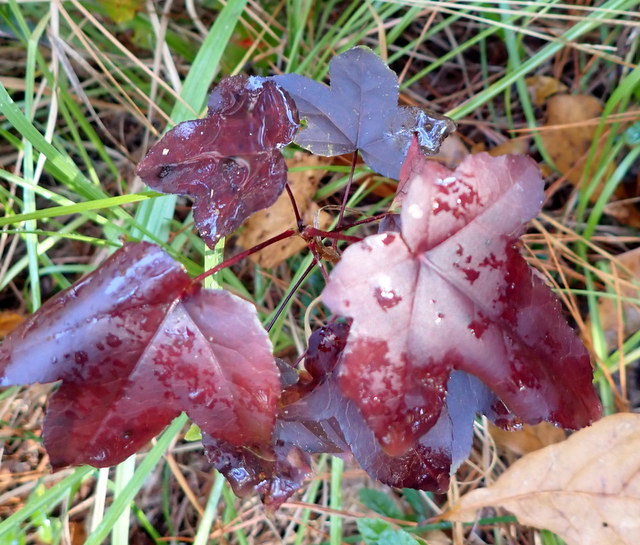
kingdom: Plantae
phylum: Tracheophyta
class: Magnoliopsida
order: Saxifragales
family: Altingiaceae
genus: Liquidambar
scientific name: Liquidambar styraciflua
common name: Sweet gum
